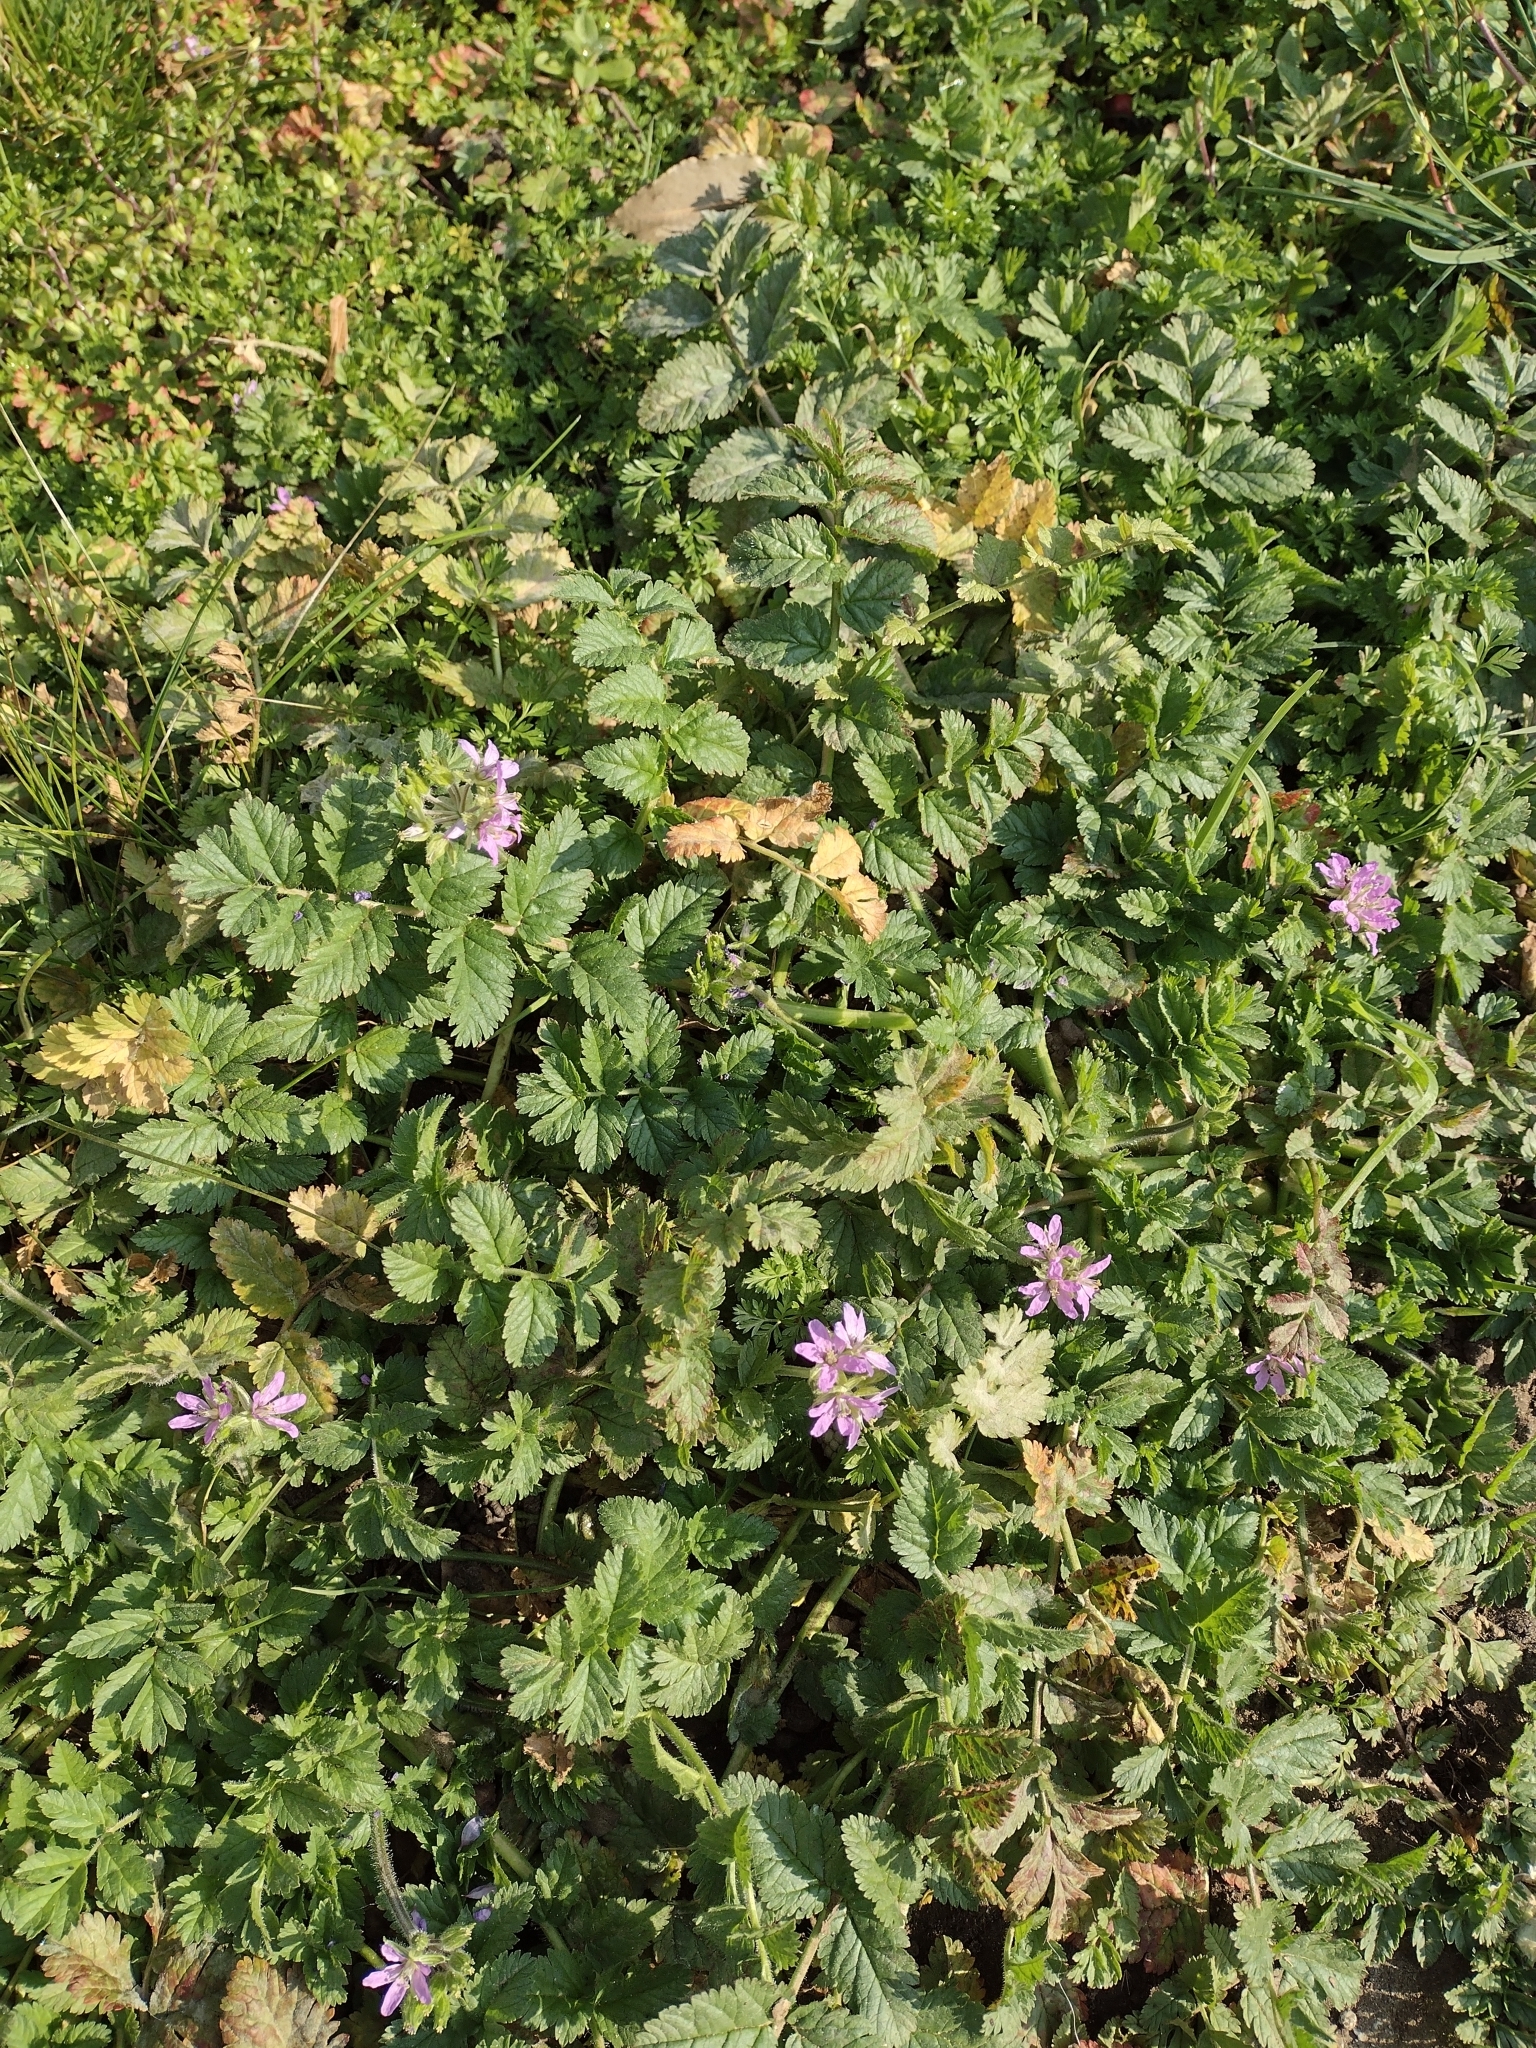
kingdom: Plantae
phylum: Tracheophyta
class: Magnoliopsida
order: Geraniales
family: Geraniaceae
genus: Erodium
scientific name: Erodium moschatum
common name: Musk stork's-bill
